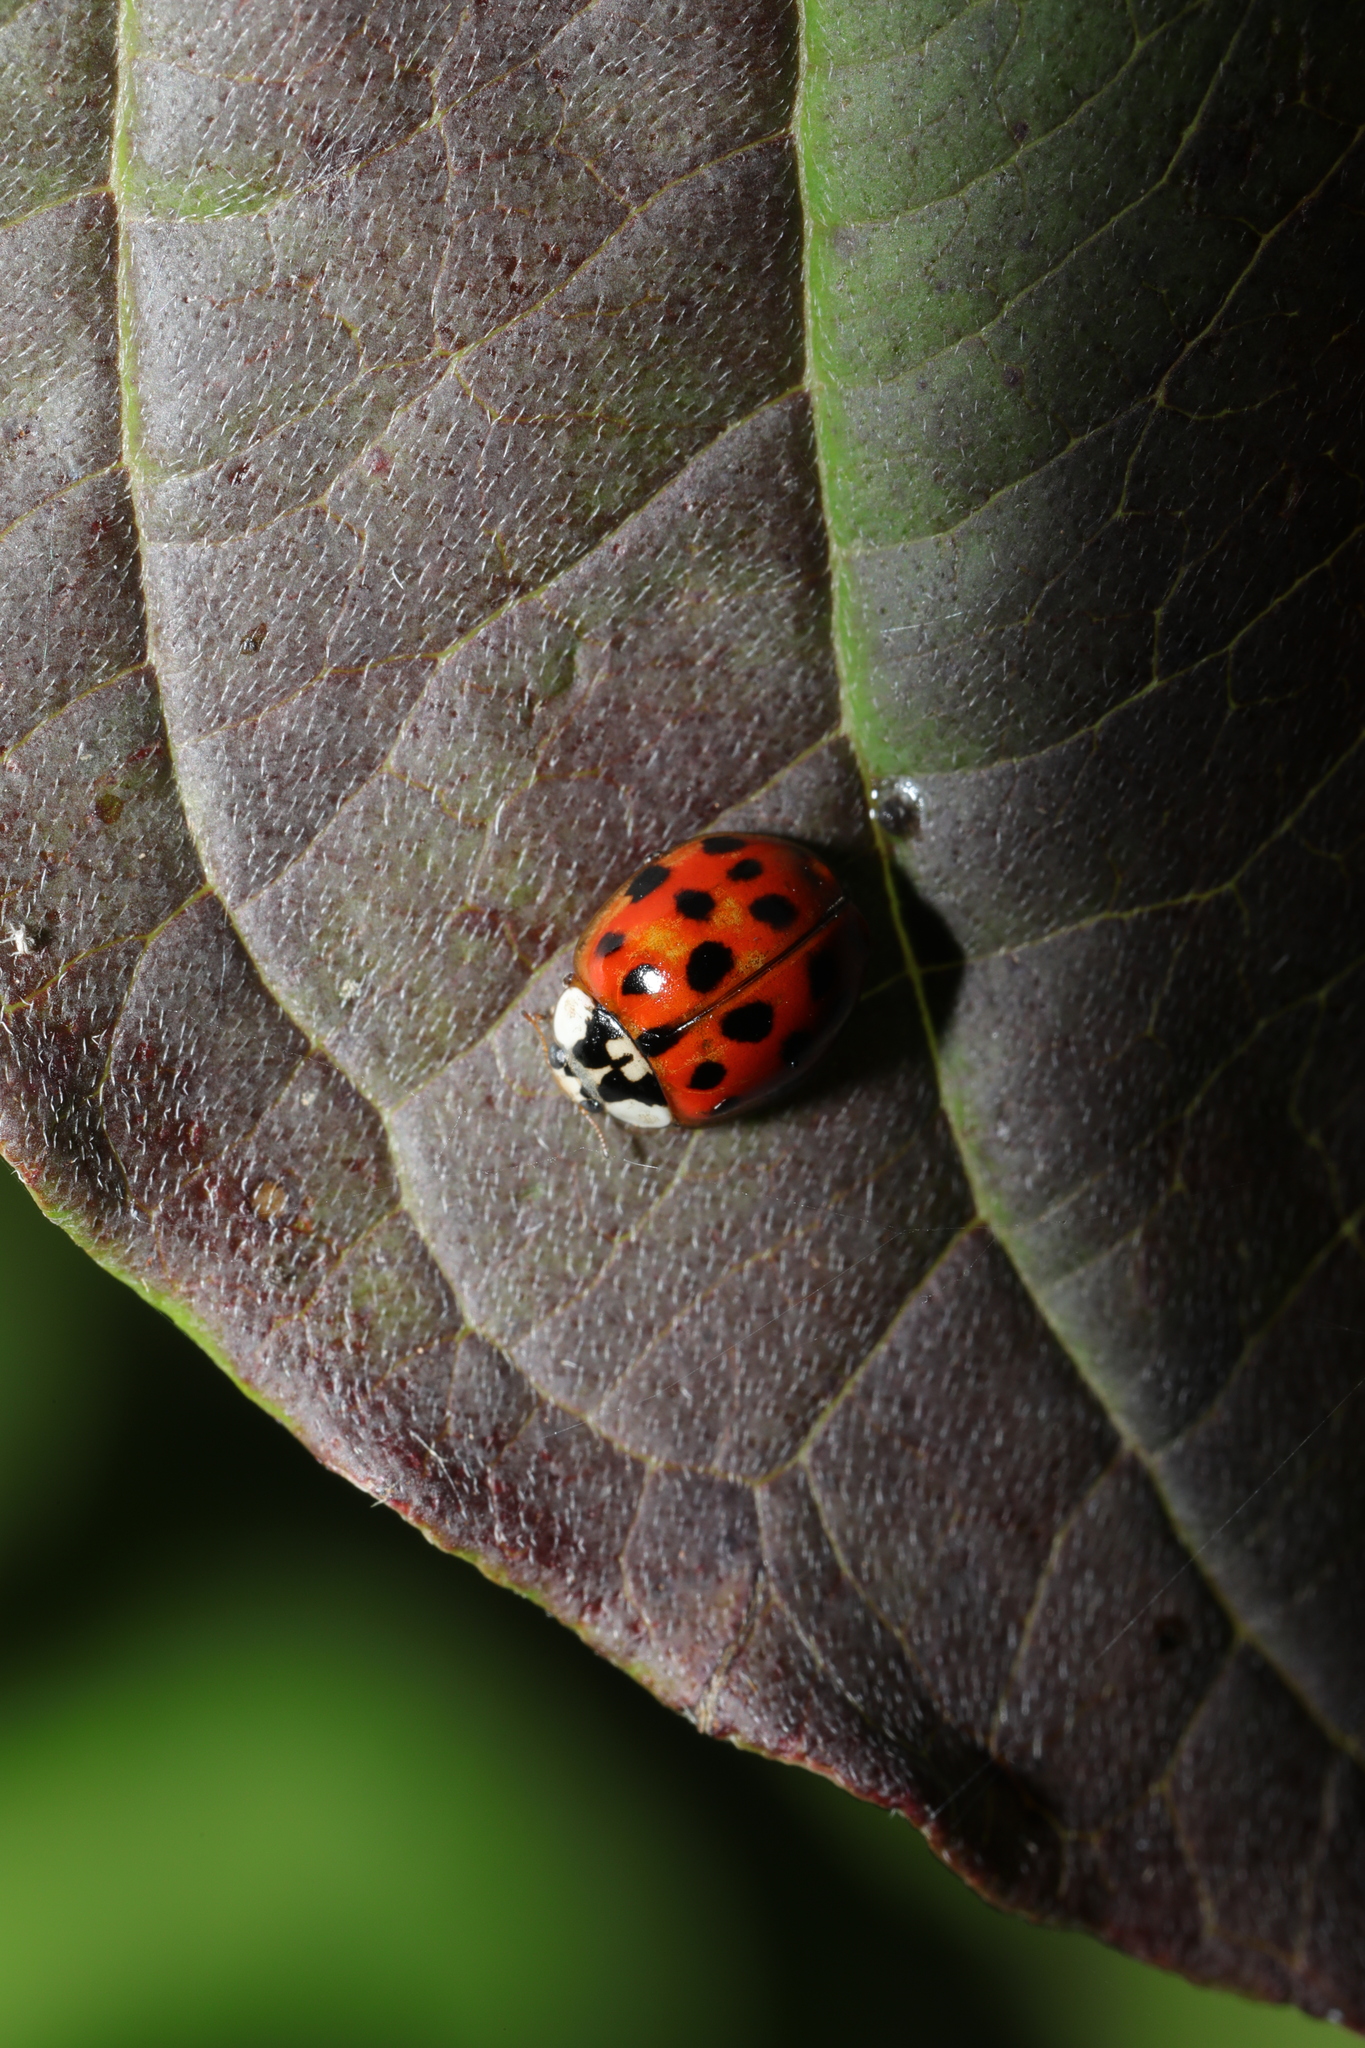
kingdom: Animalia
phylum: Arthropoda
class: Insecta
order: Coleoptera
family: Coccinellidae
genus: Harmonia
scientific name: Harmonia axyridis
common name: Harlequin ladybird
